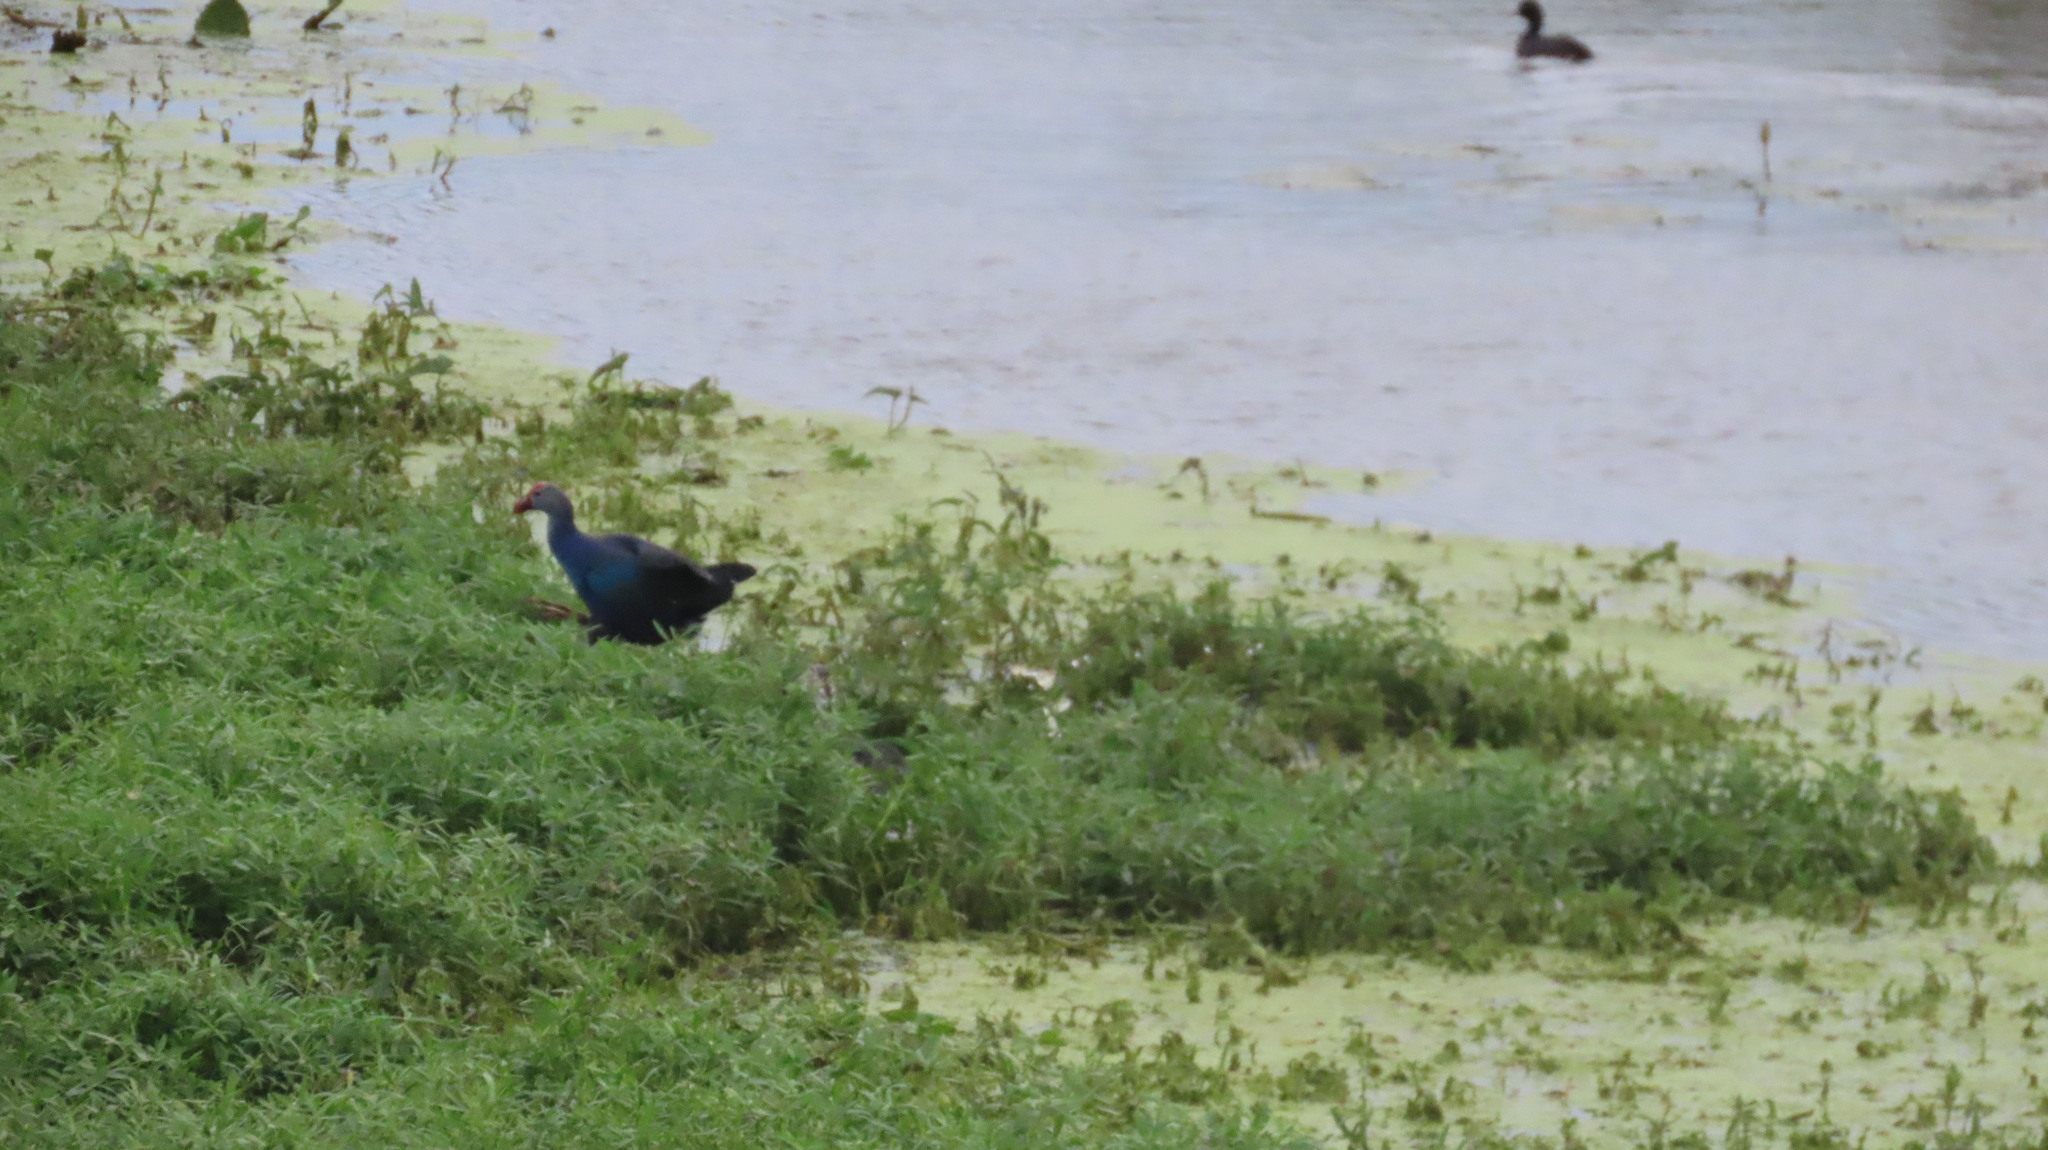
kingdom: Animalia
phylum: Chordata
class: Aves
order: Gruiformes
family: Rallidae
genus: Porphyrio
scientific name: Porphyrio porphyrio
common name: Purple swamphen
